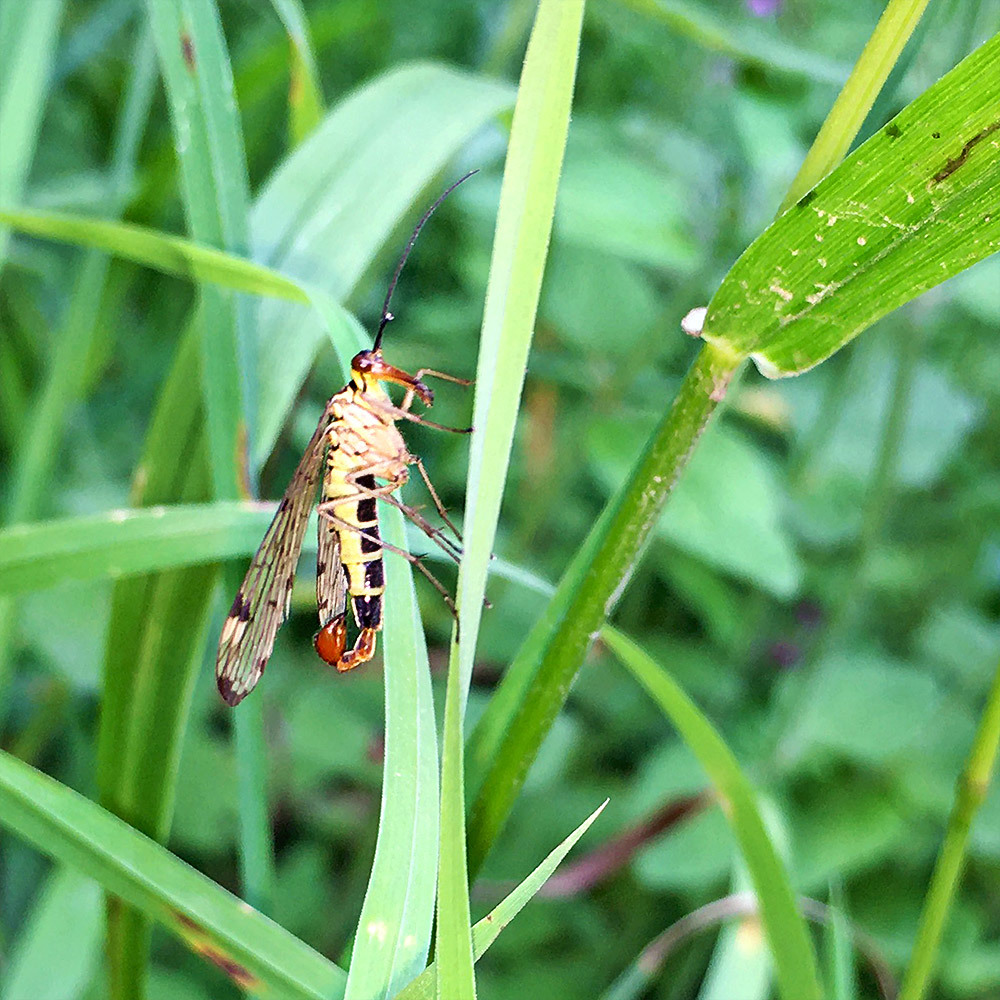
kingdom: Animalia
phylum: Arthropoda
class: Insecta
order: Mecoptera
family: Panorpidae
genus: Panorpa
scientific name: Panorpa germanica
